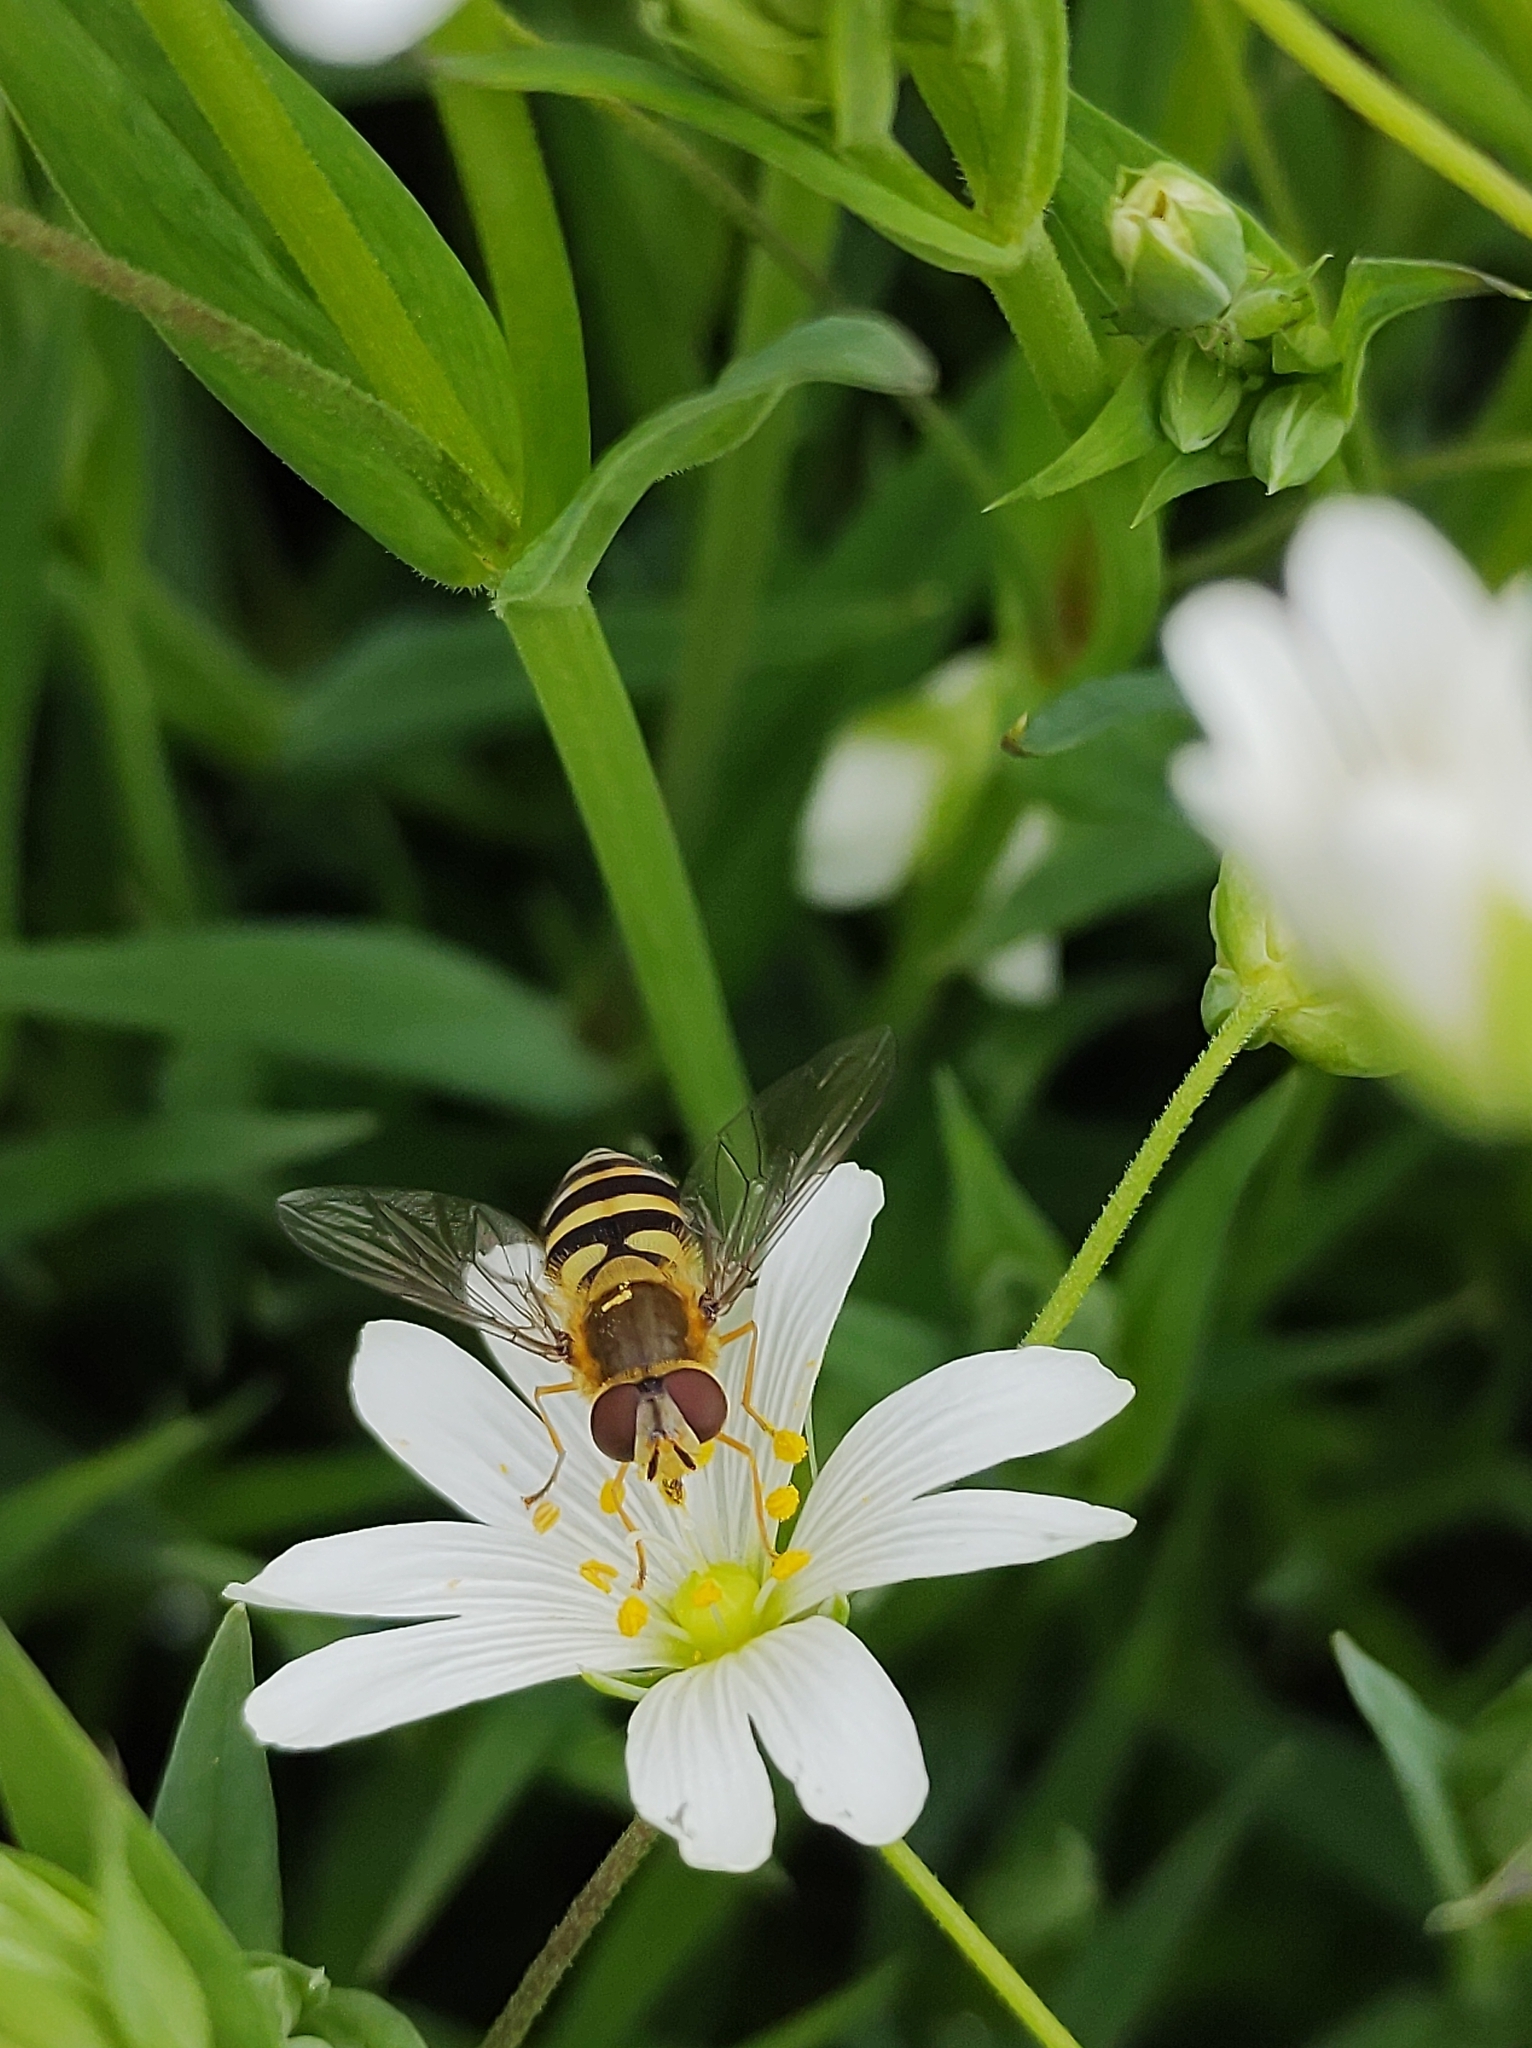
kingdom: Animalia
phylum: Arthropoda
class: Insecta
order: Diptera
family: Syrphidae
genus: Syrphus
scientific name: Syrphus
